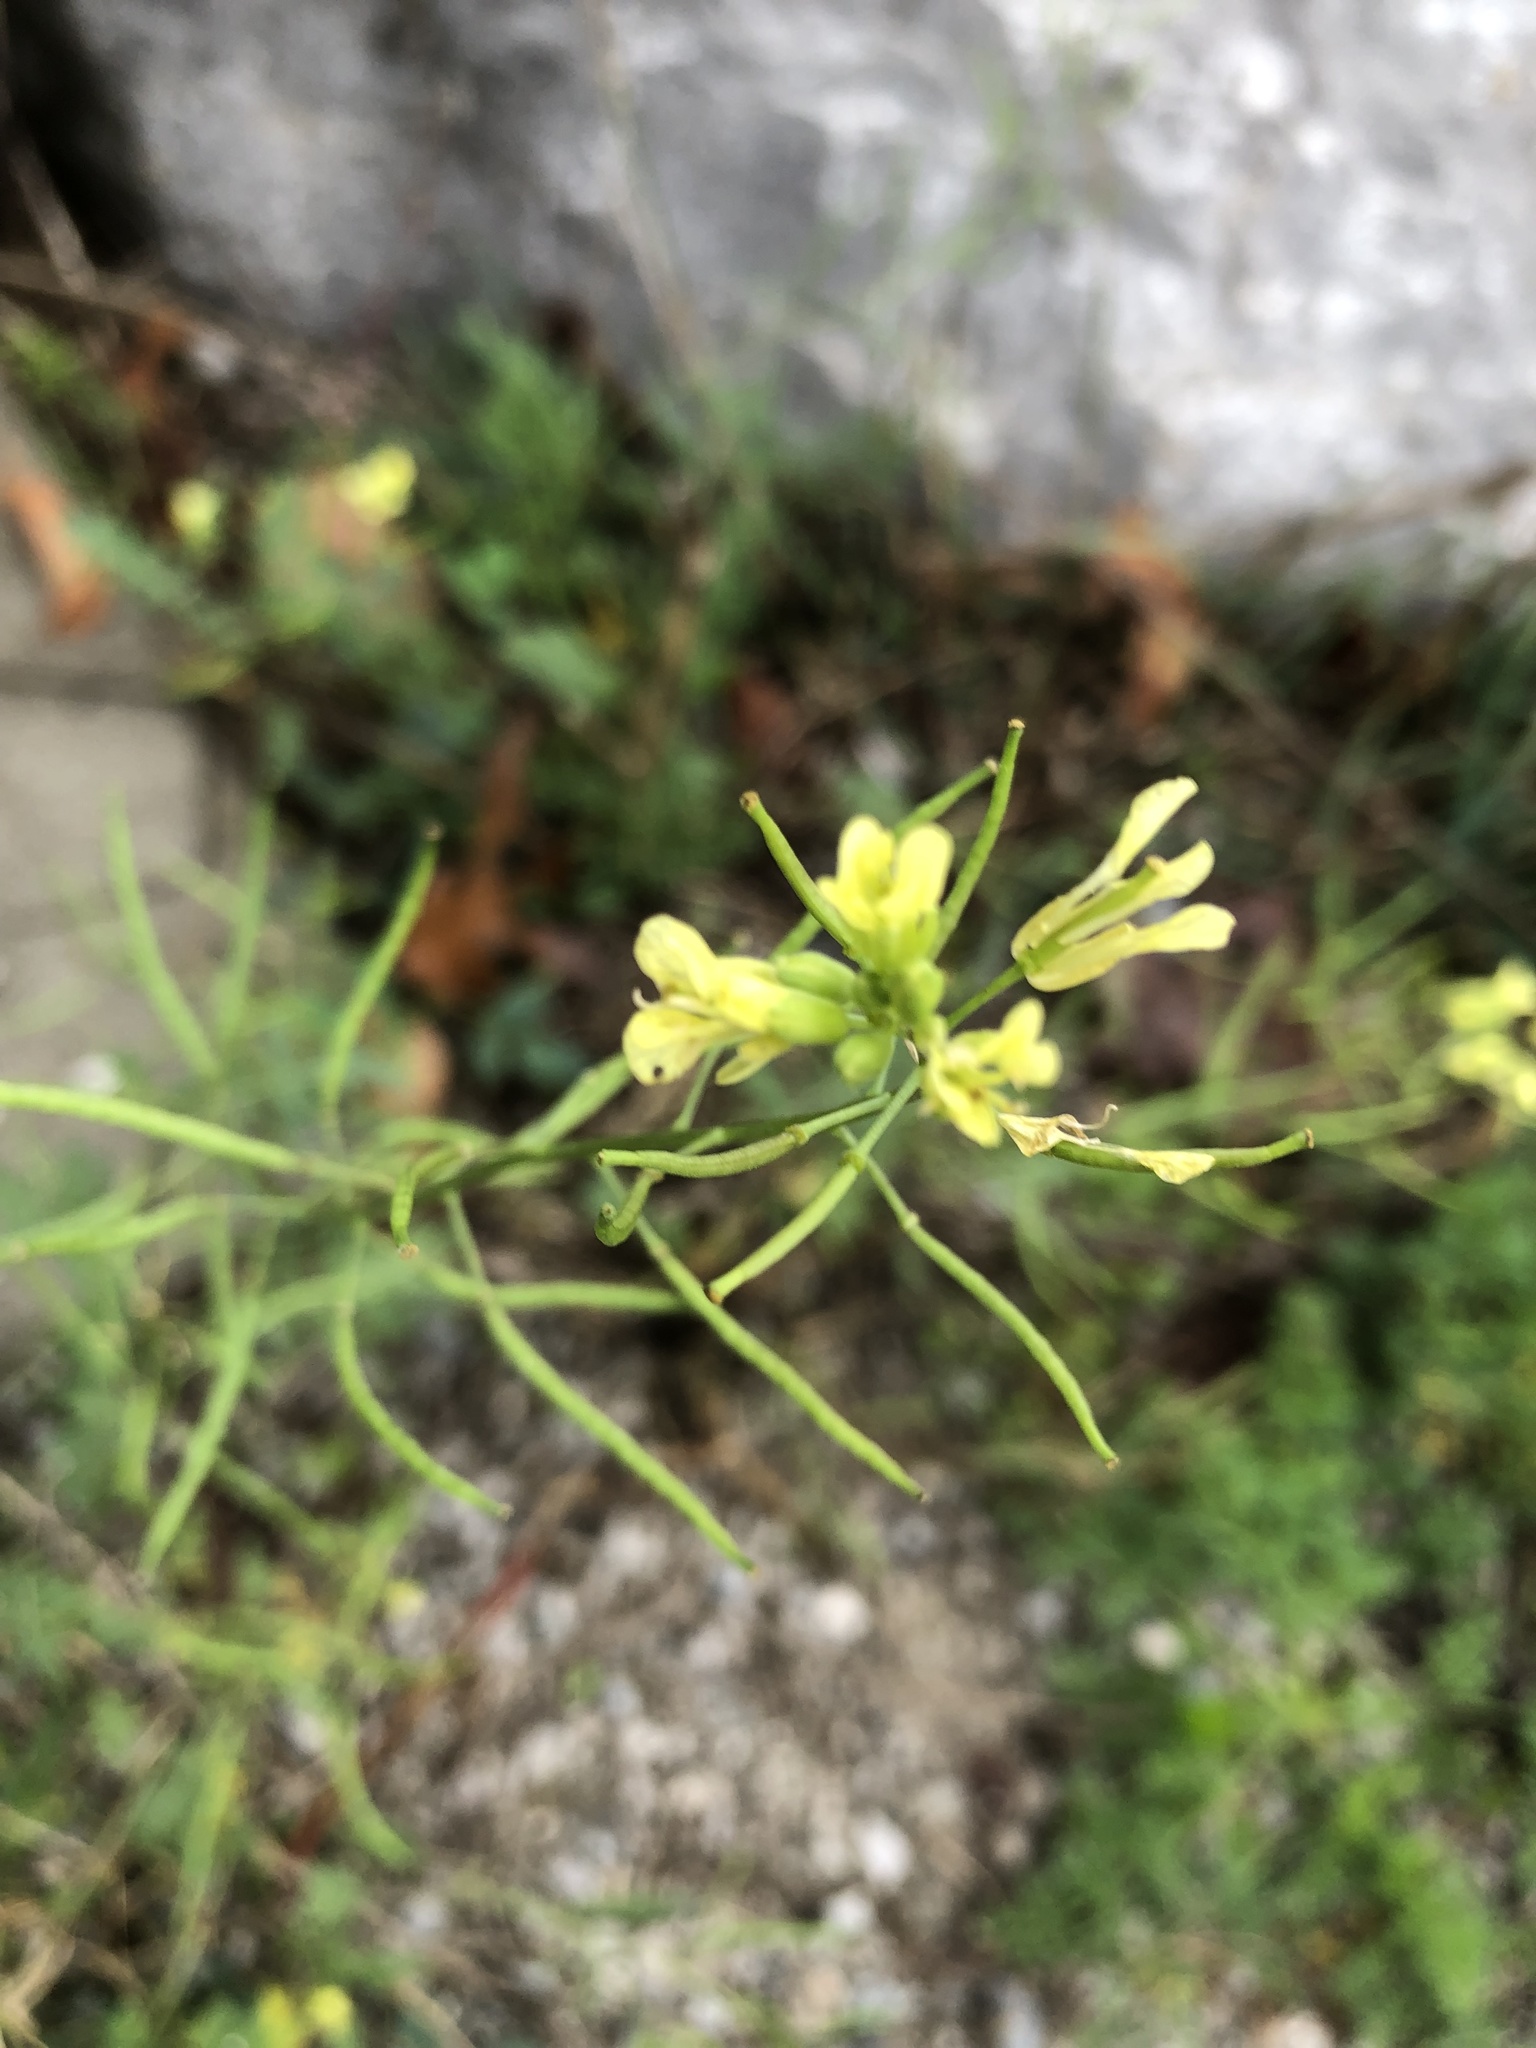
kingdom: Plantae
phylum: Tracheophyta
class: Magnoliopsida
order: Brassicales
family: Brassicaceae
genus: Erucastrum
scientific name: Erucastrum gallicum
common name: Hairy rocket
